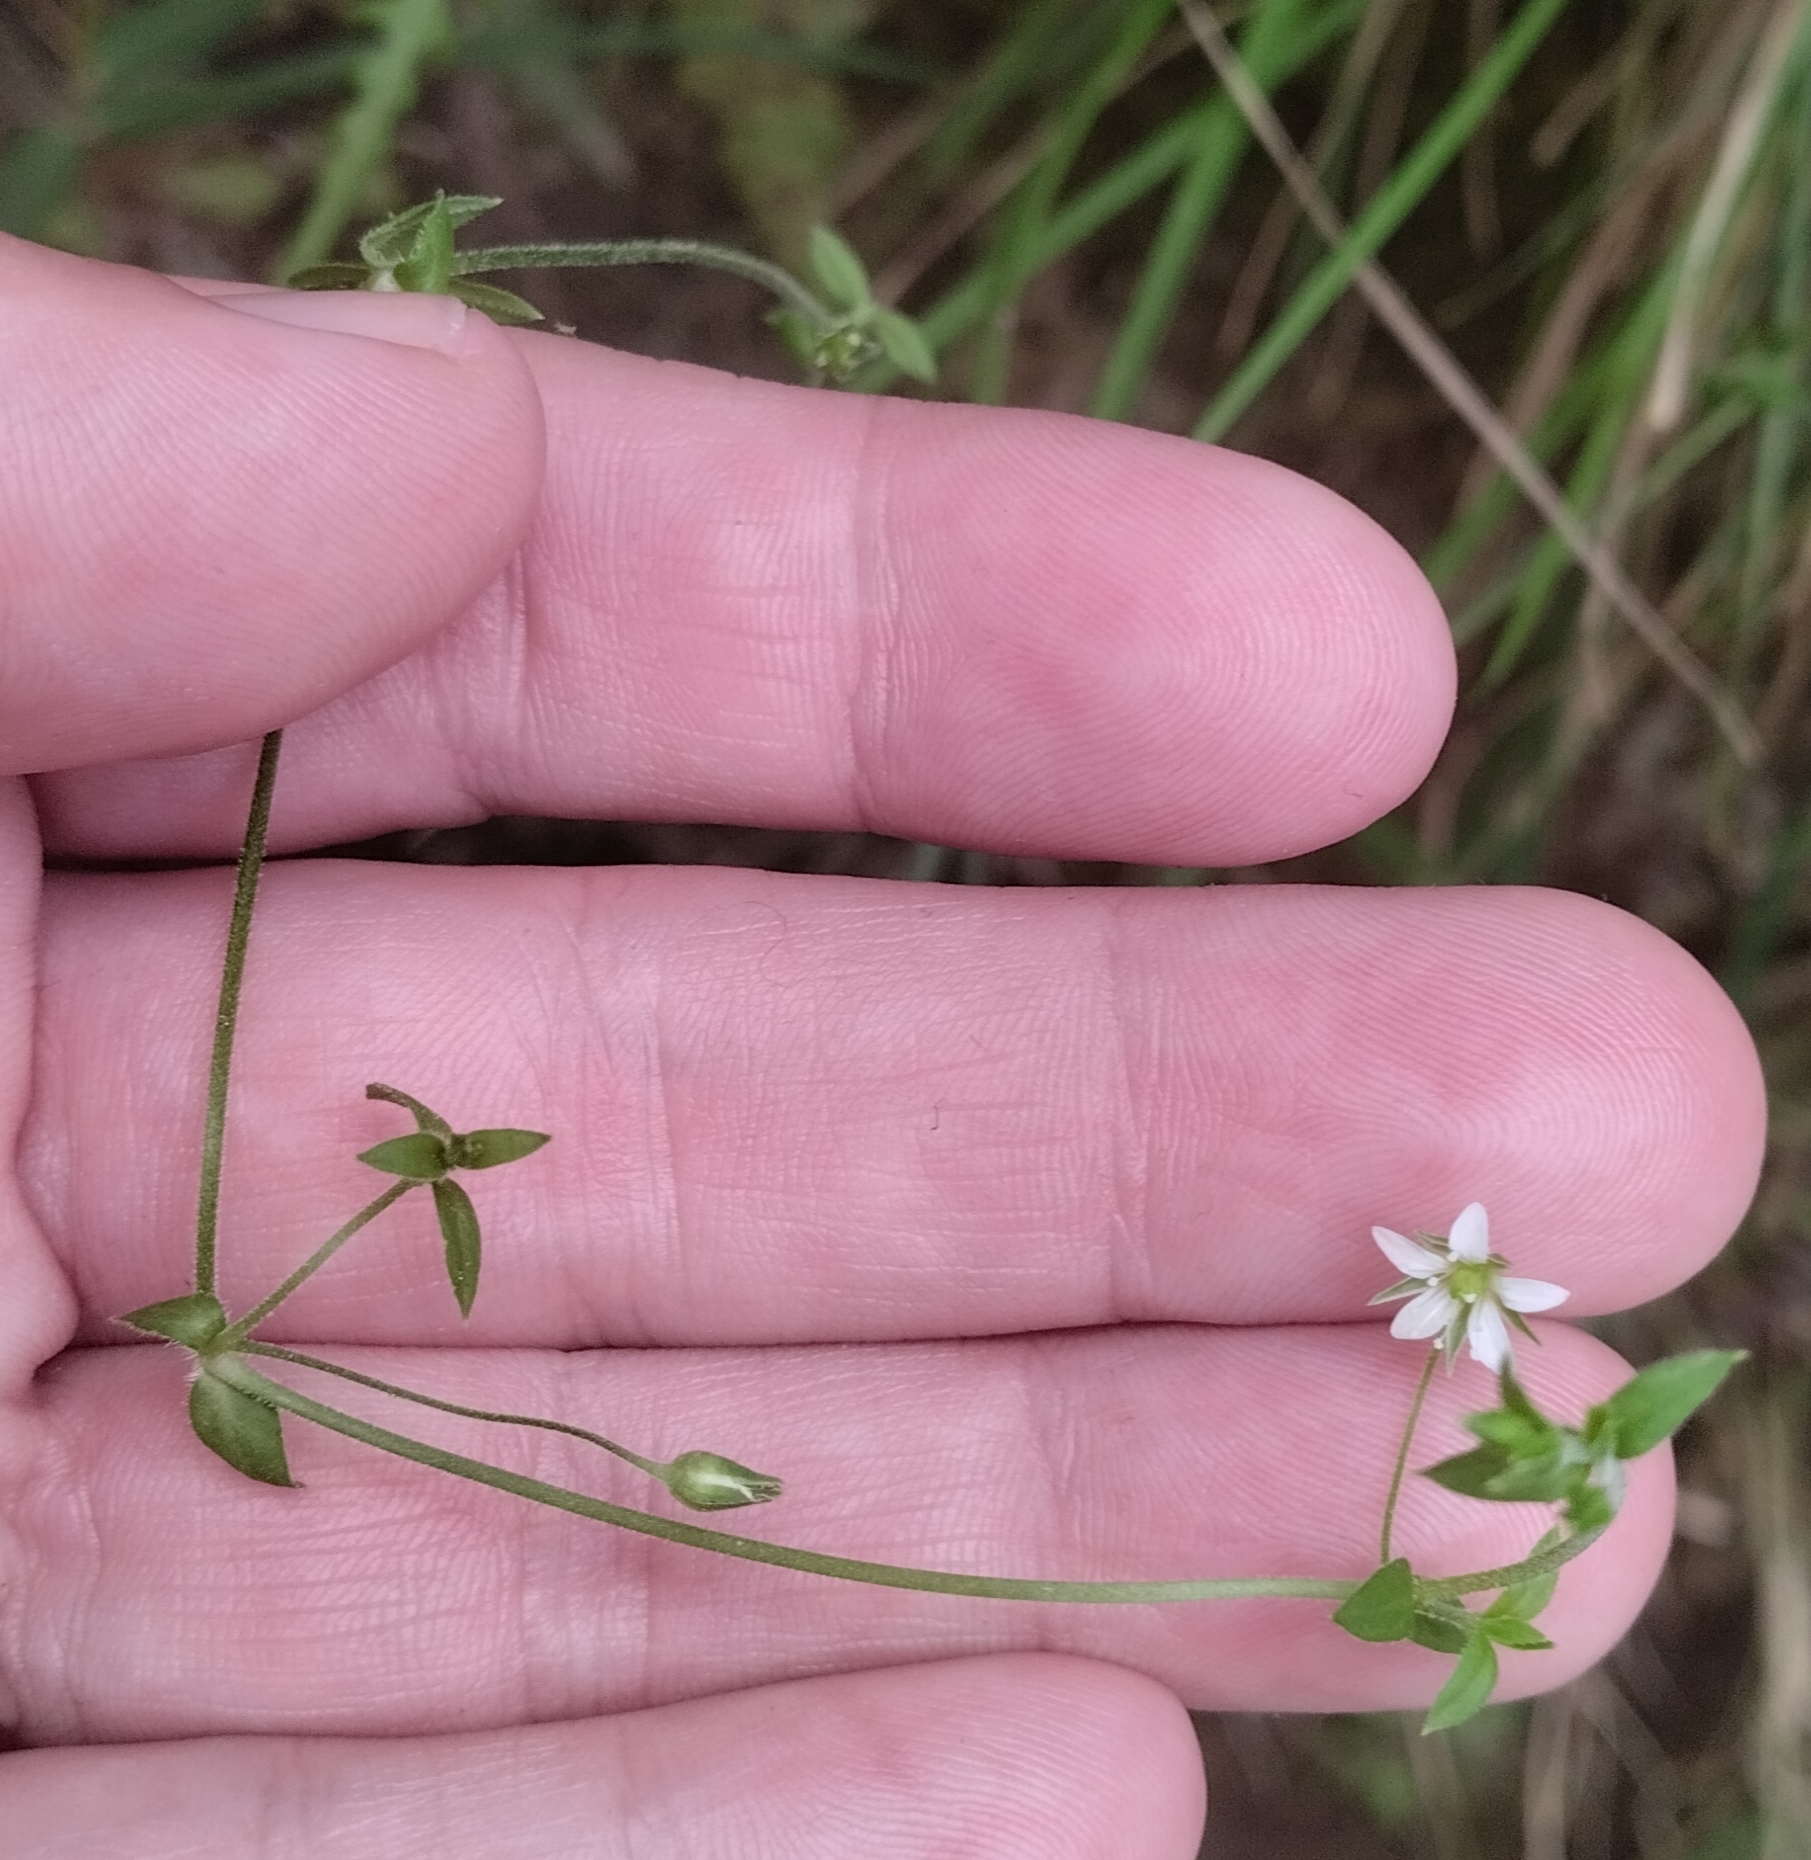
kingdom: Plantae
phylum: Tracheophyta
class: Magnoliopsida
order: Caryophyllales
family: Caryophyllaceae
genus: Arenaria
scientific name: Arenaria lanuginosa
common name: Spread sandwort
